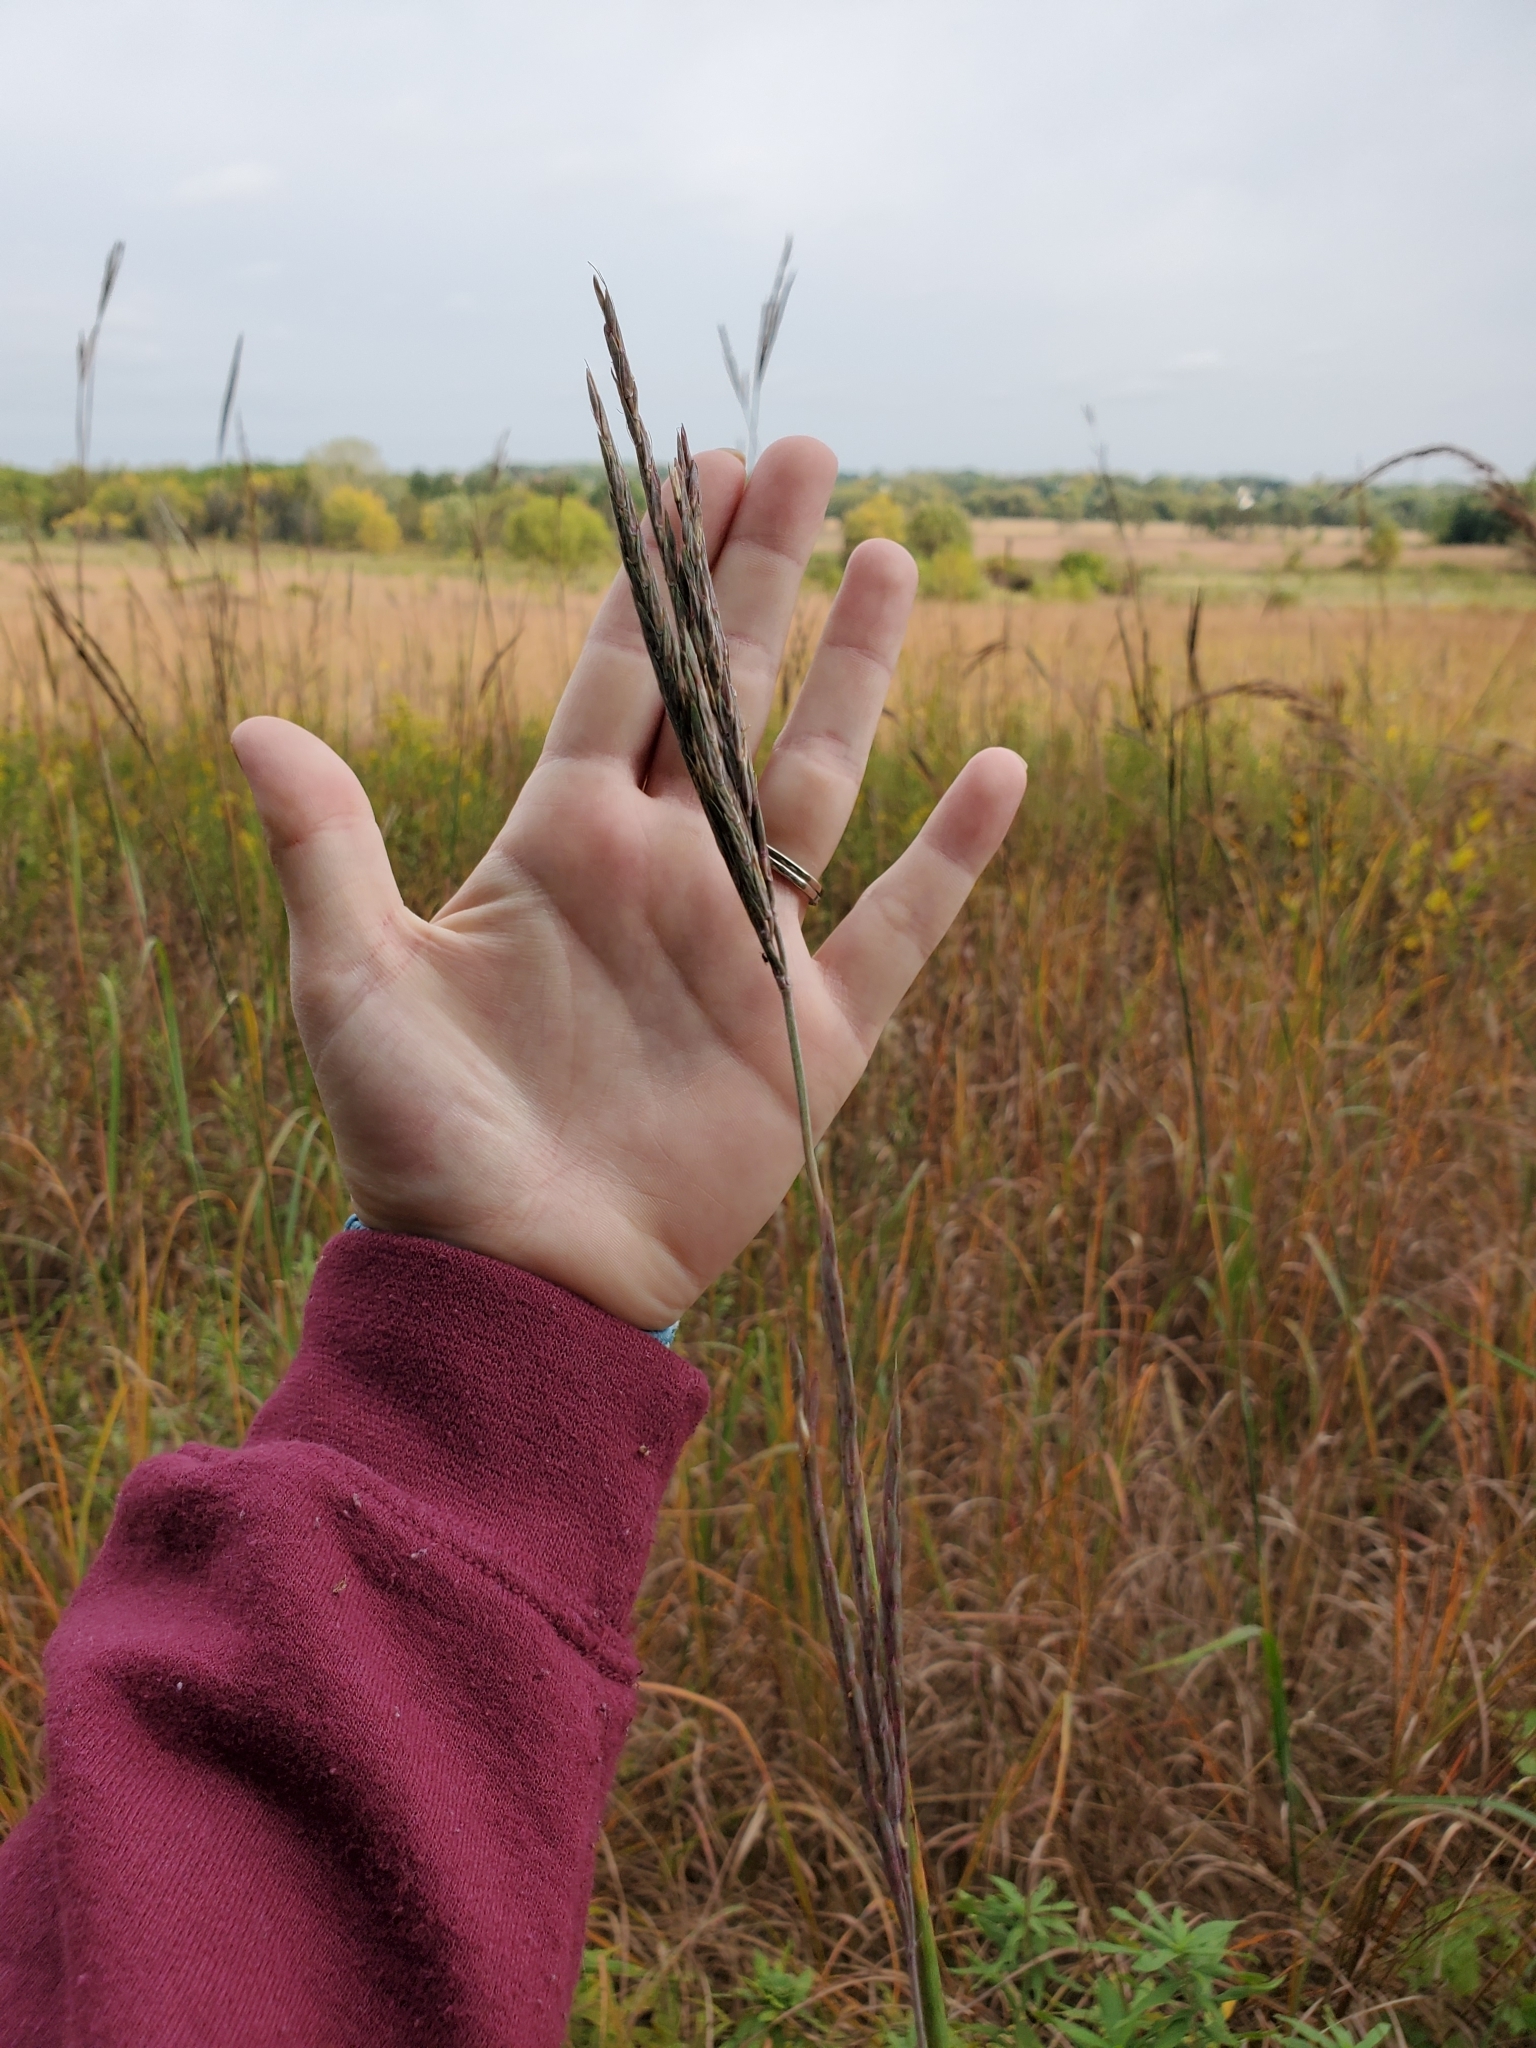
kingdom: Plantae
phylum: Tracheophyta
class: Liliopsida
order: Poales
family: Poaceae
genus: Andropogon
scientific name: Andropogon gerardi
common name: Big bluestem
